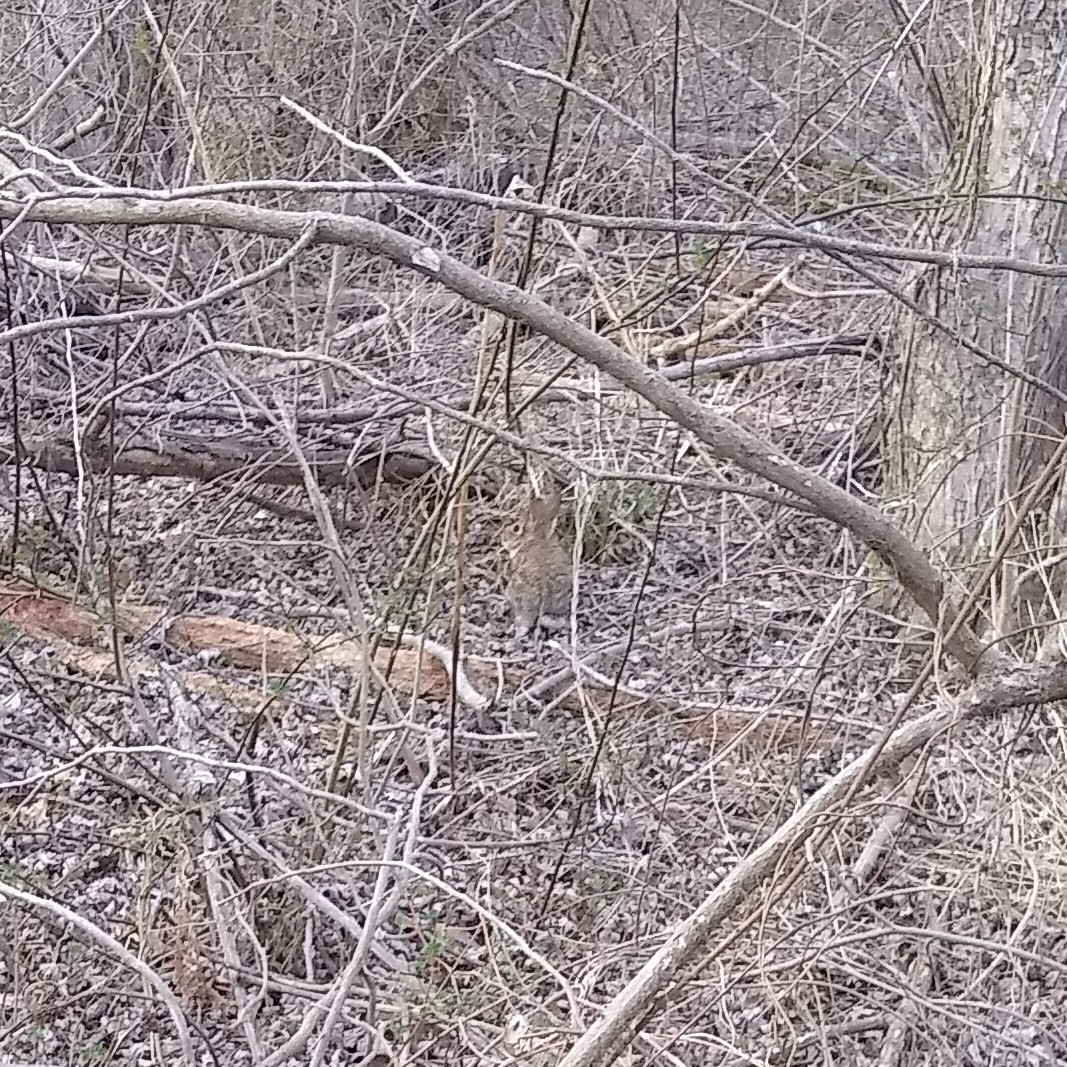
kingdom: Animalia
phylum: Chordata
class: Mammalia
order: Lagomorpha
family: Leporidae
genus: Sylvilagus
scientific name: Sylvilagus floridanus
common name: Eastern cottontail
